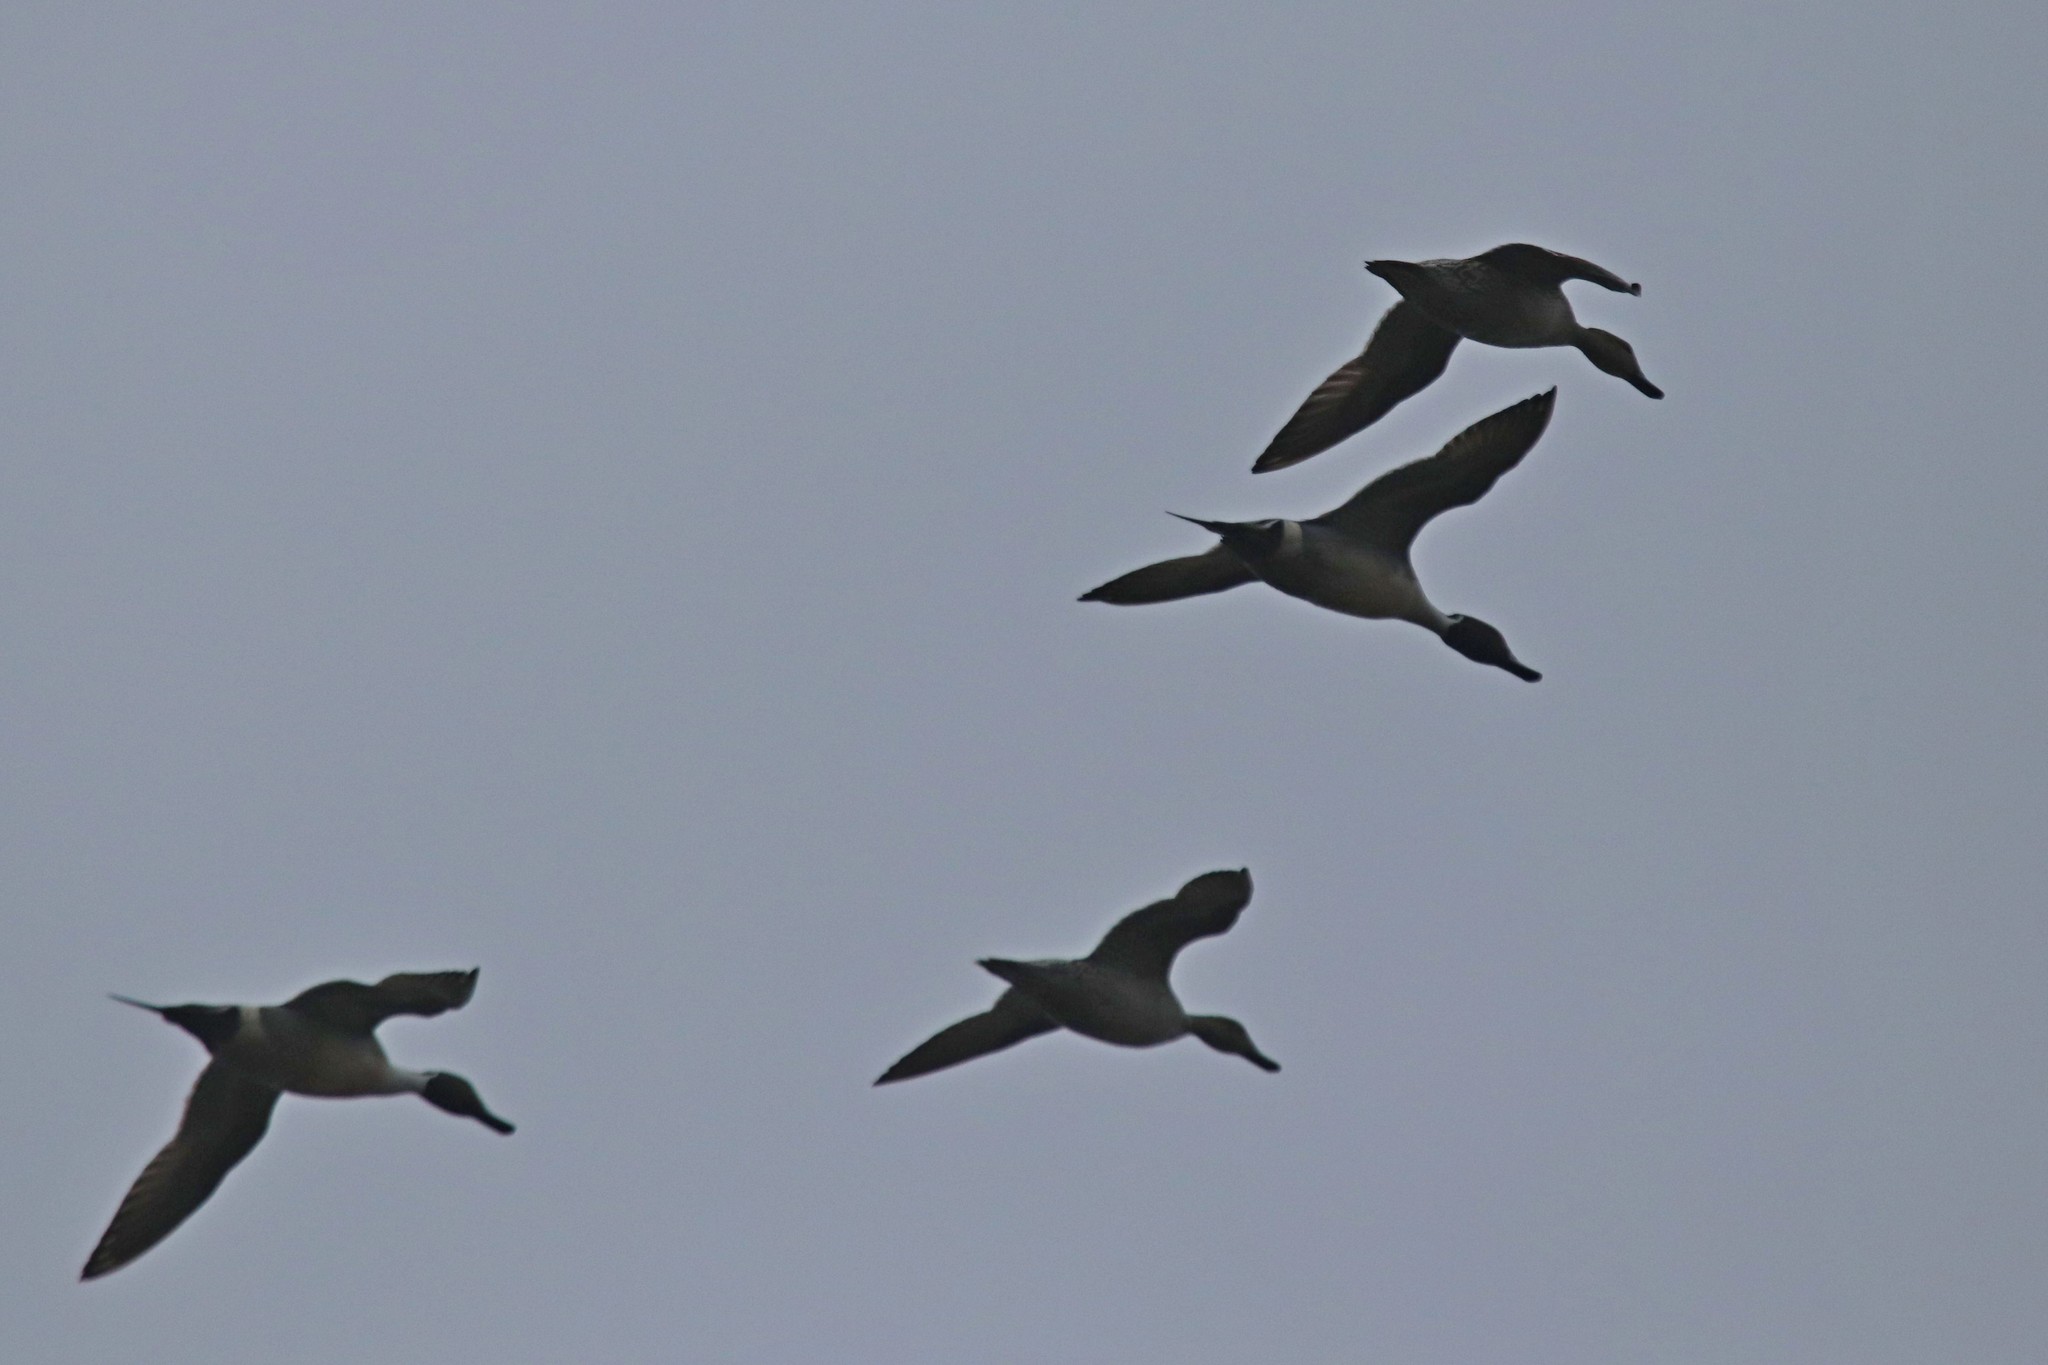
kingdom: Animalia
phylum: Chordata
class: Aves
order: Anseriformes
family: Anatidae
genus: Anas
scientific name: Anas acuta
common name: Northern pintail
